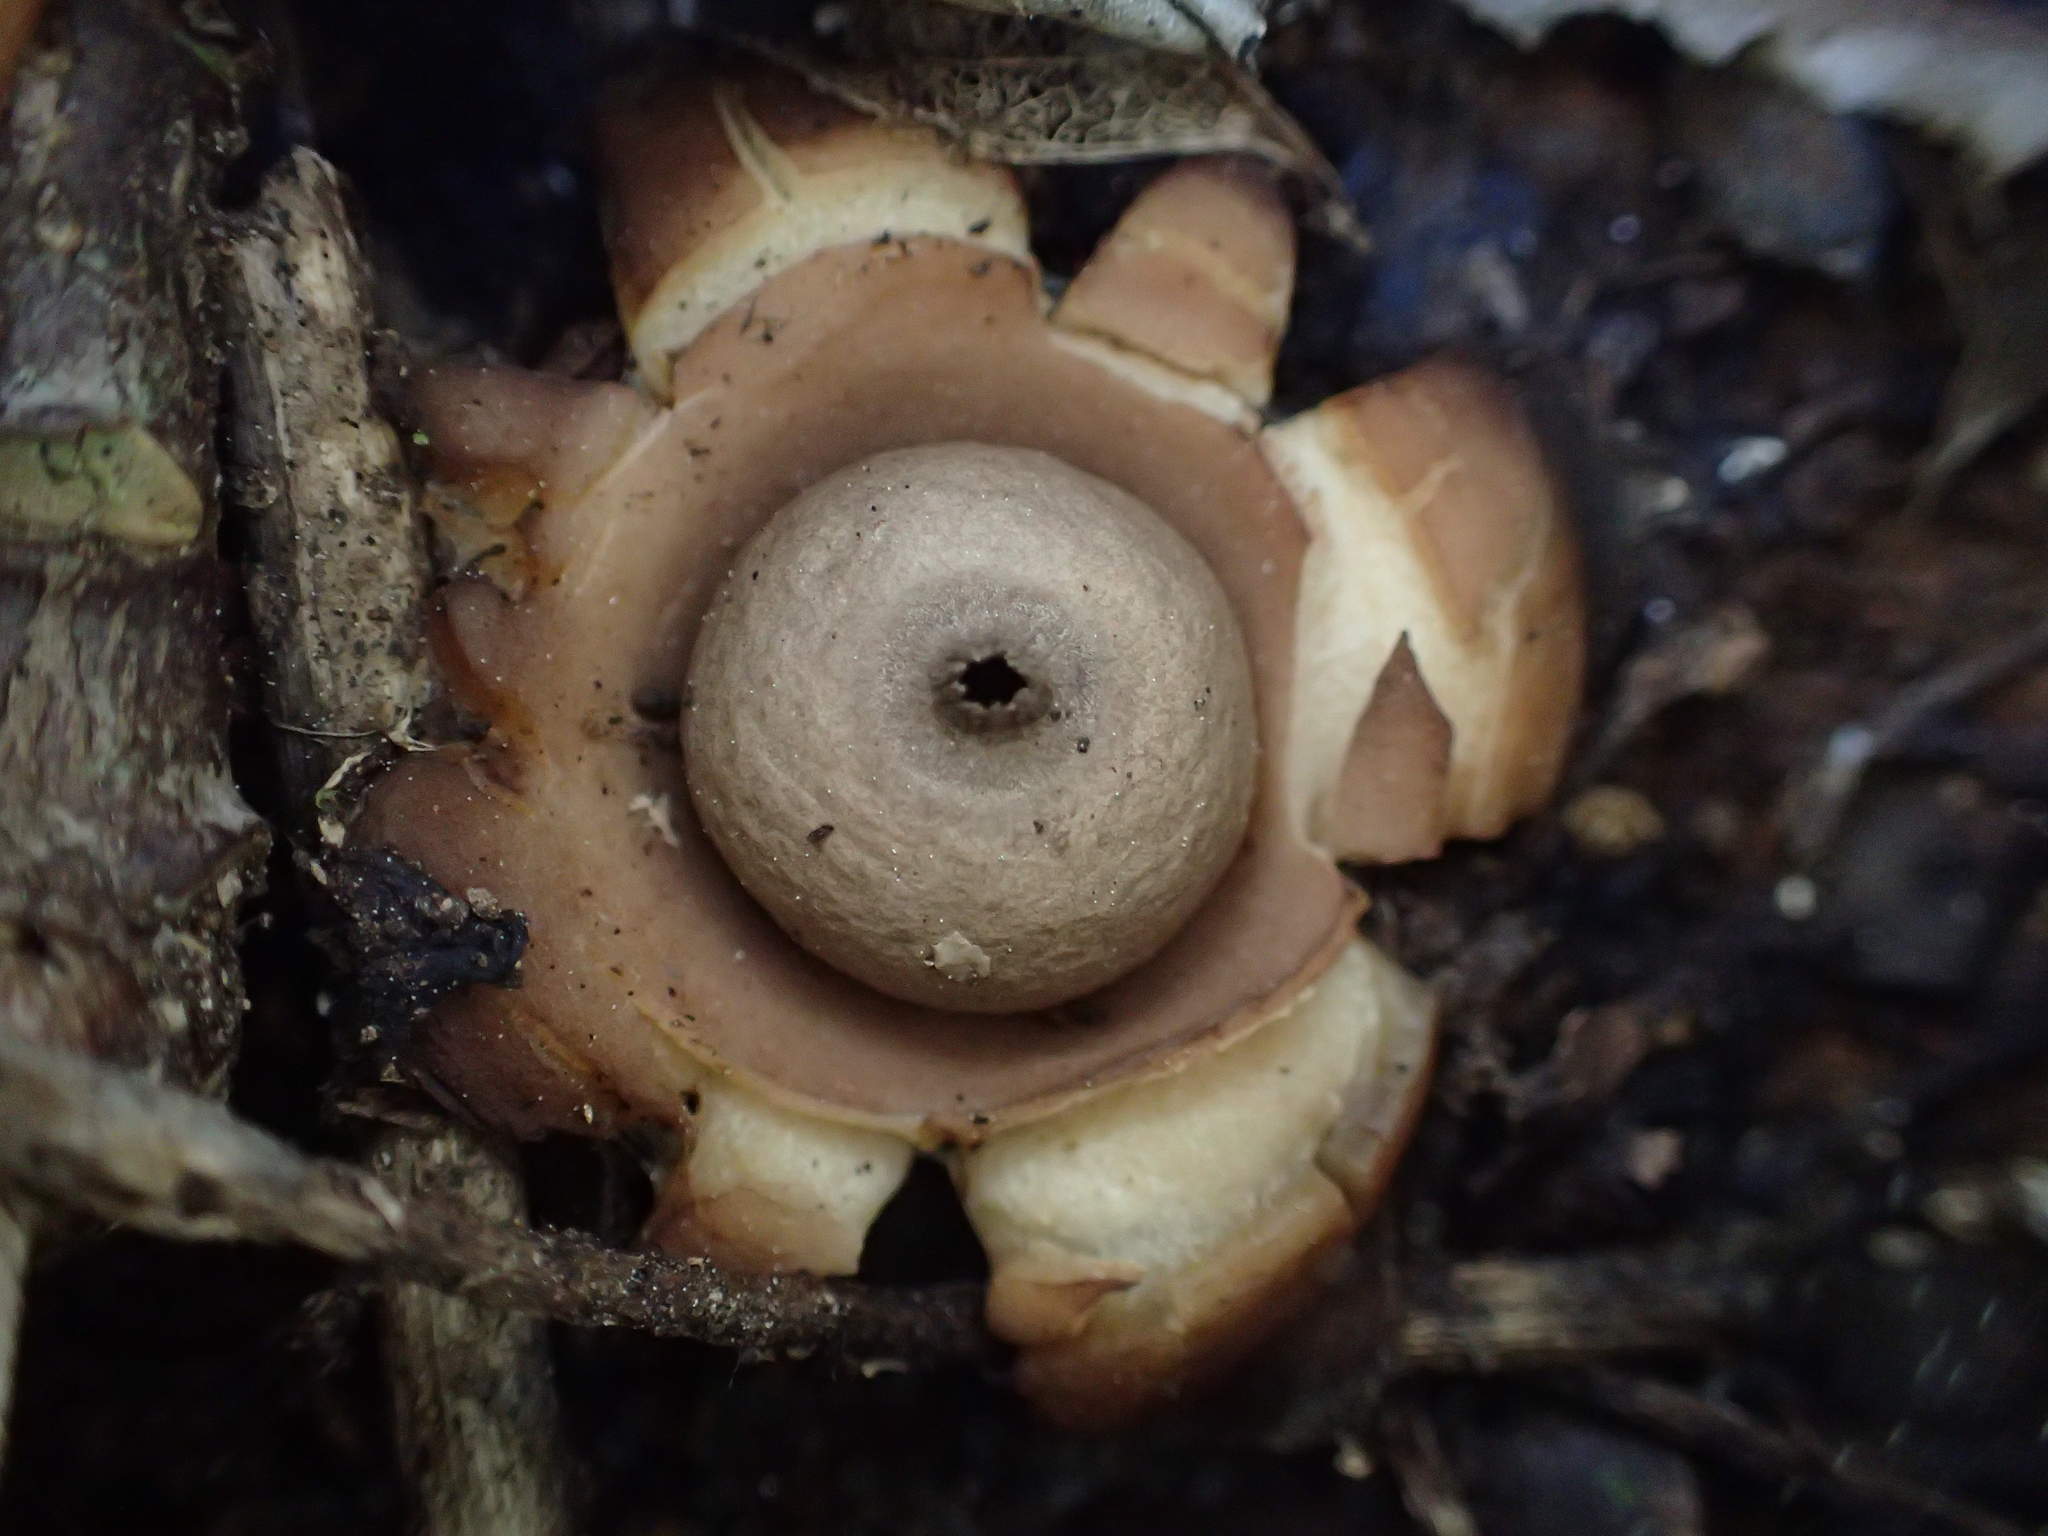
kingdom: Fungi
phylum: Basidiomycota
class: Agaricomycetes
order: Geastrales
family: Geastraceae
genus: Geastrum
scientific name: Geastrum australe
